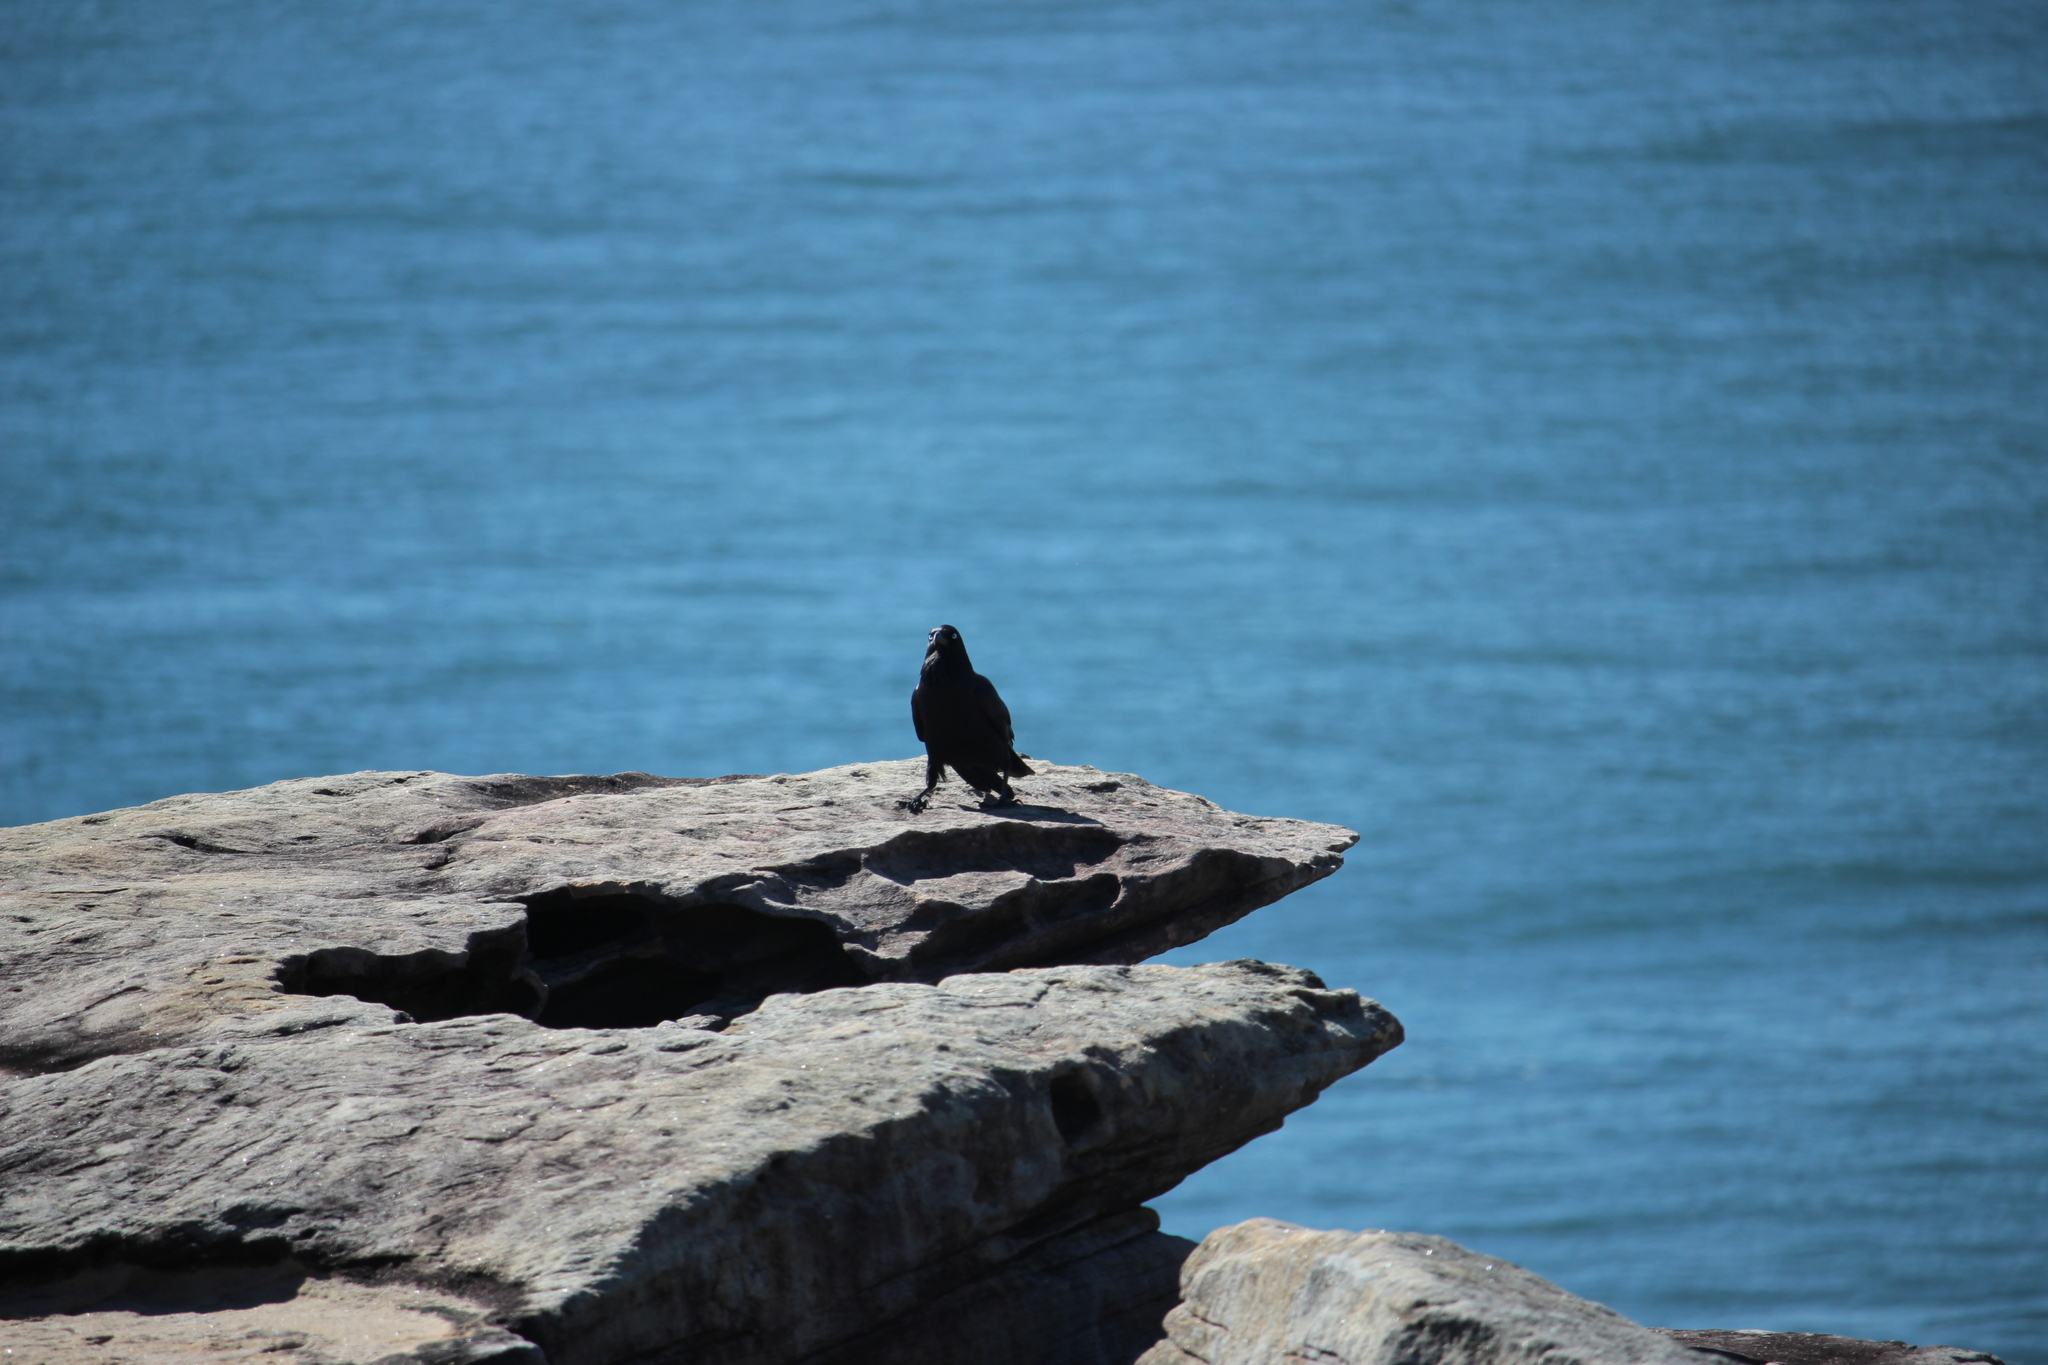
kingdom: Animalia
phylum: Chordata
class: Aves
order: Passeriformes
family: Corvidae
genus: Corvus
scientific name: Corvus coronoides
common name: Australian raven
